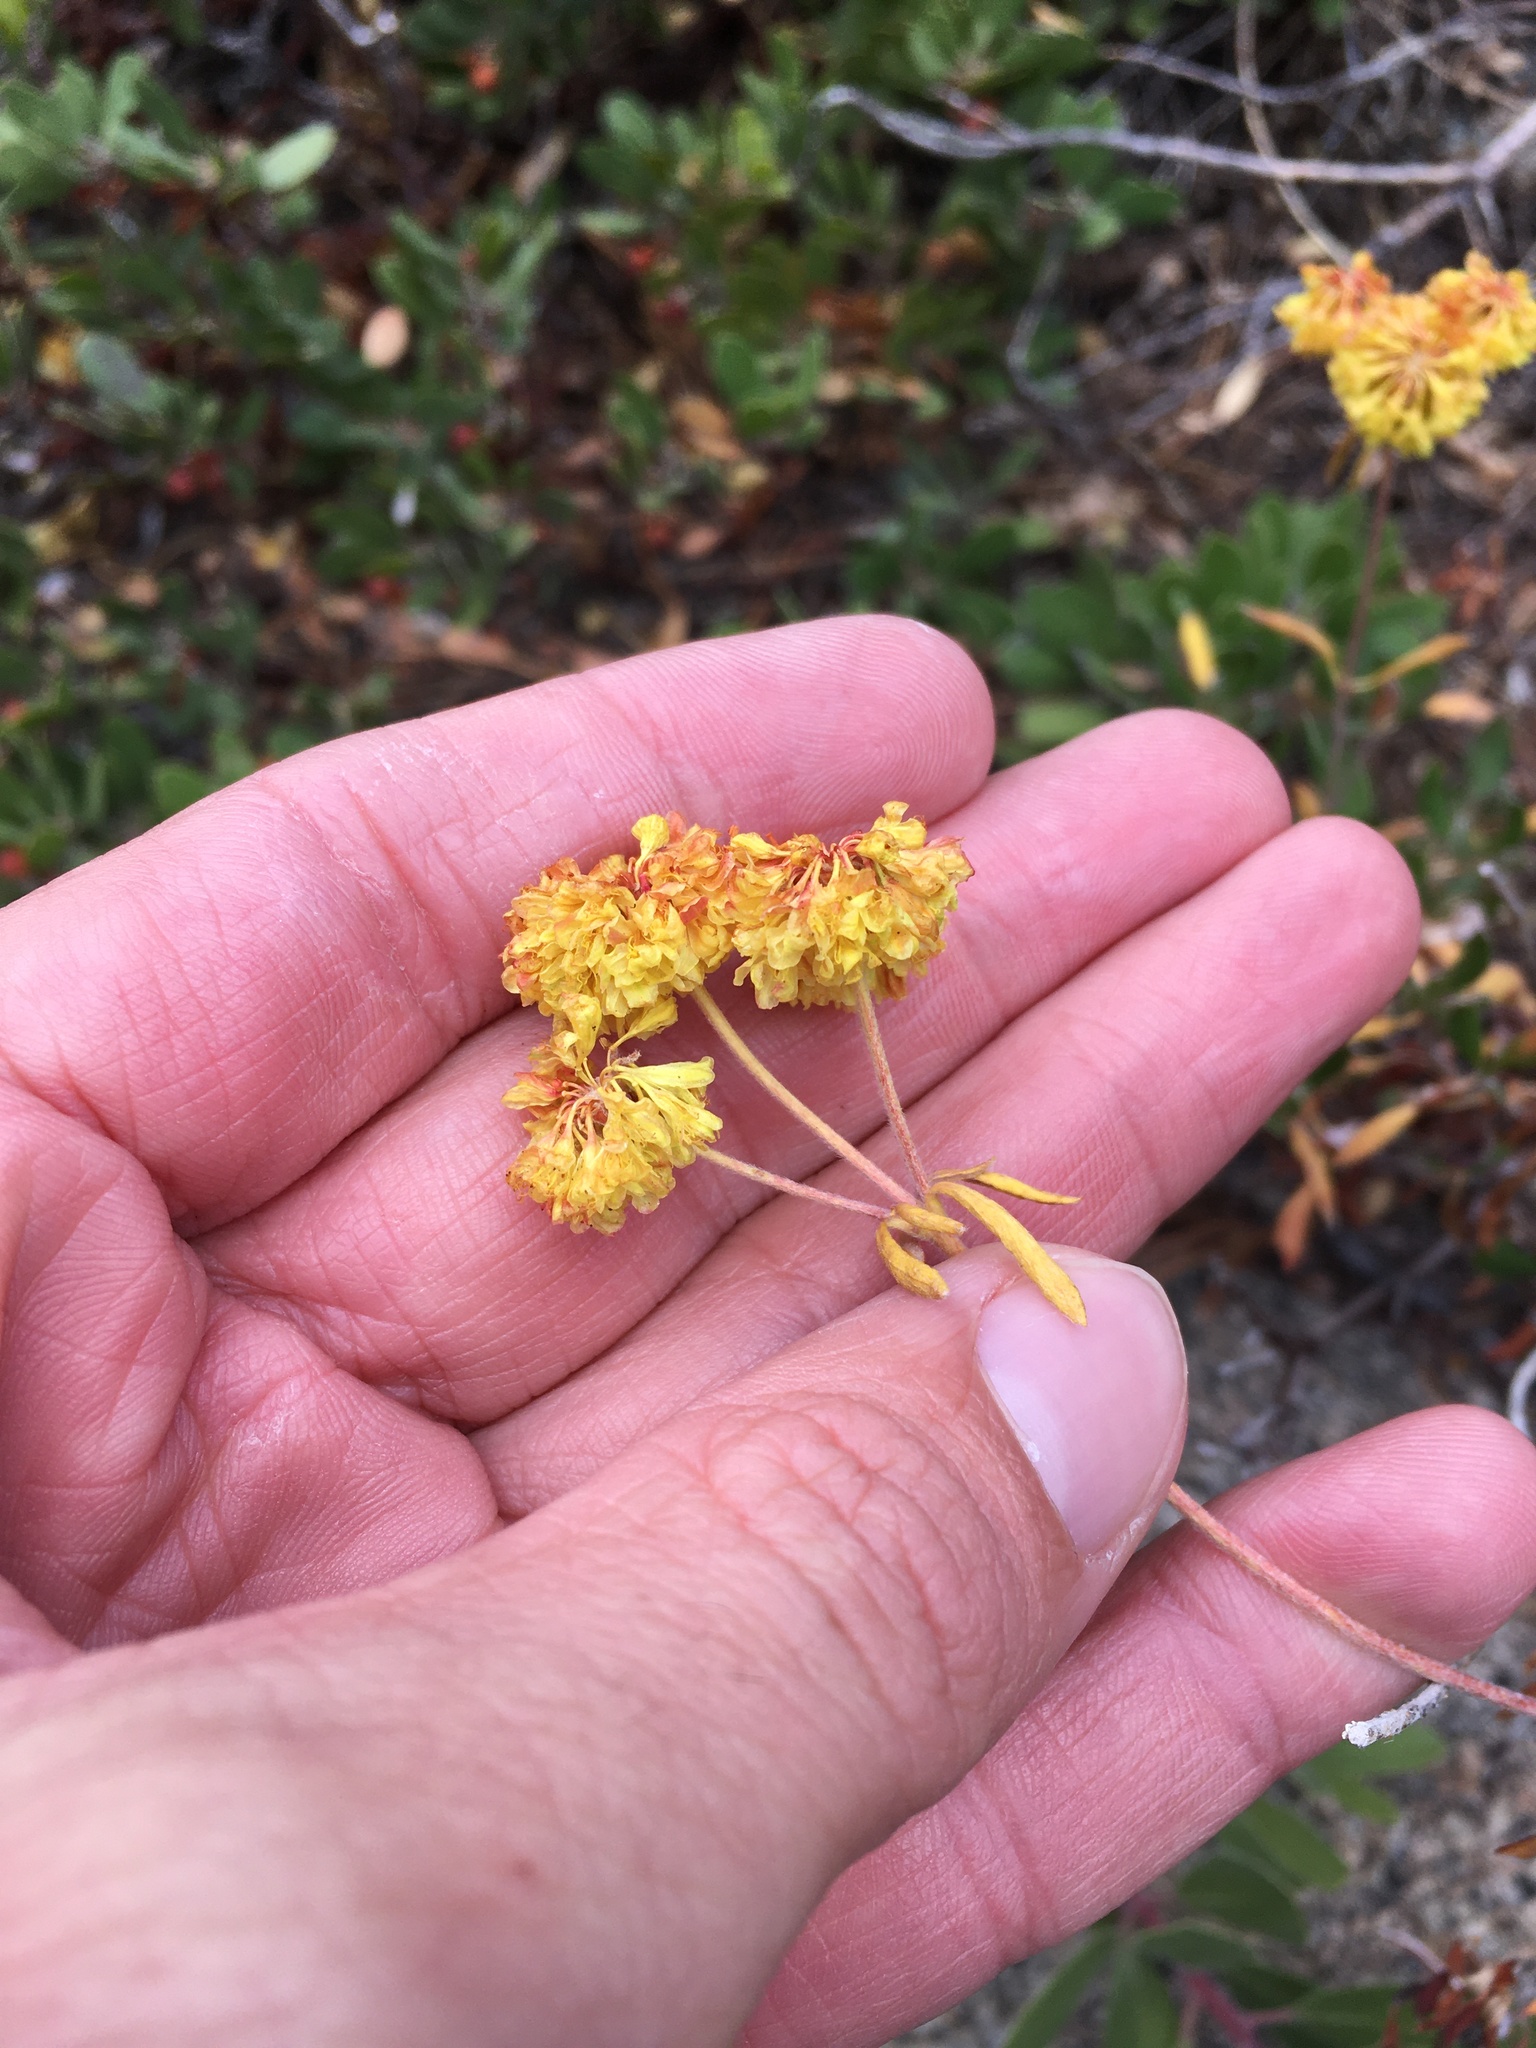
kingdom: Plantae
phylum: Tracheophyta
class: Magnoliopsida
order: Caryophyllales
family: Polygonaceae
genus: Eriogonum
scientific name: Eriogonum umbellatum
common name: Sulfur-buckwheat
